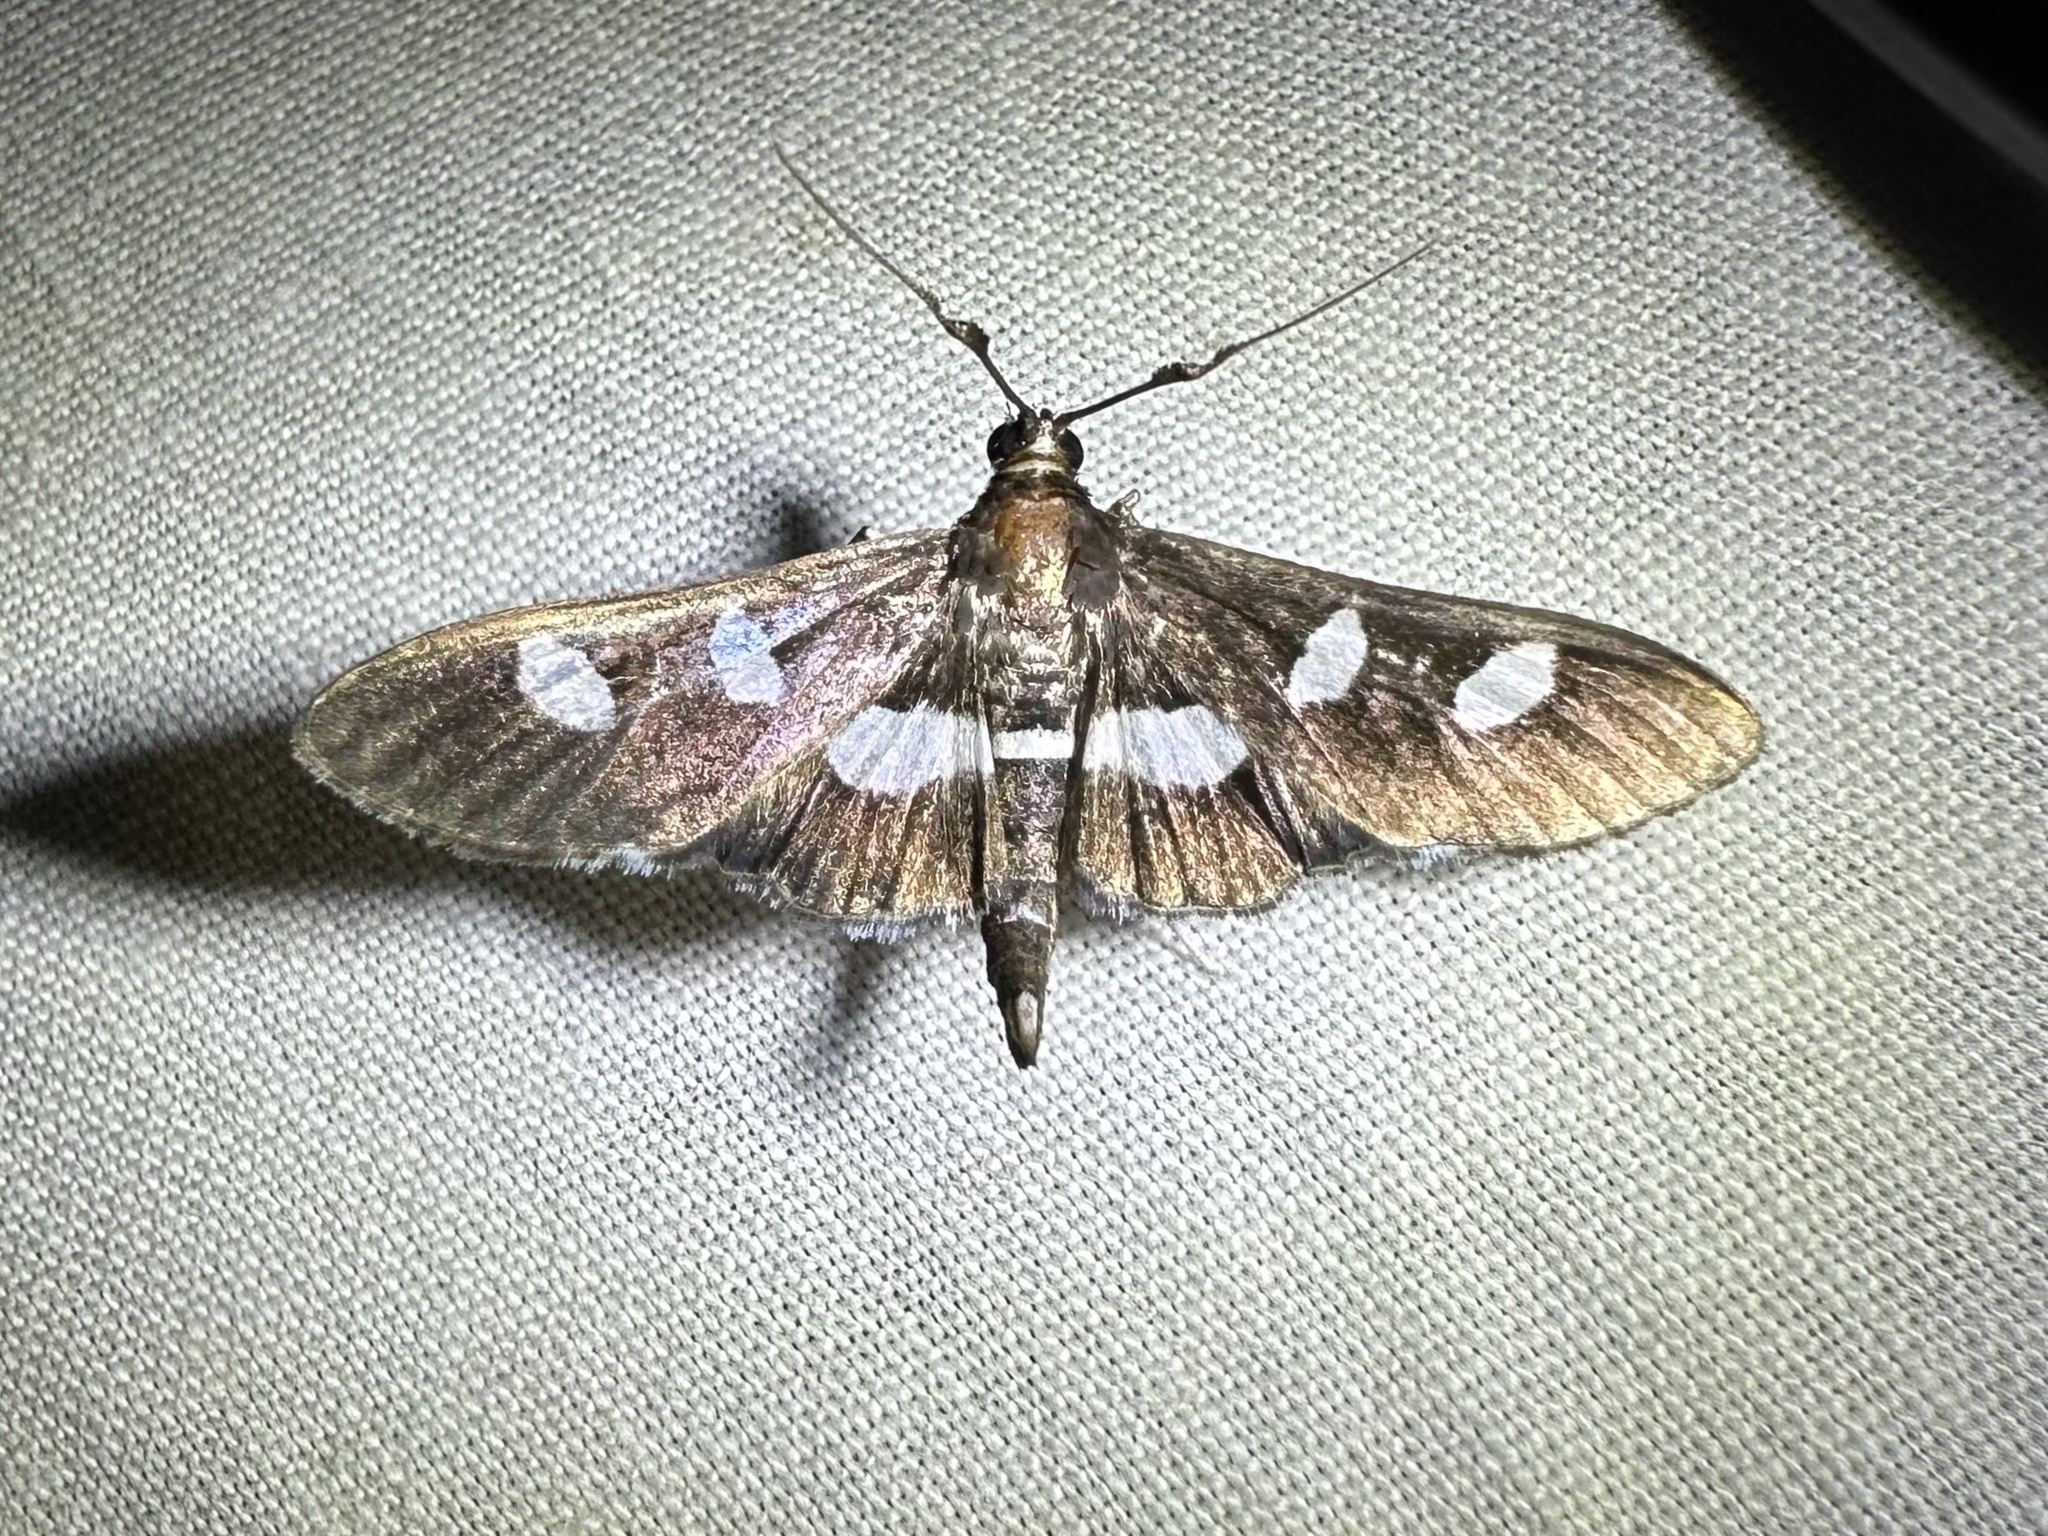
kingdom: Animalia
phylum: Arthropoda
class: Insecta
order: Lepidoptera
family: Crambidae
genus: Desmia
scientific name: Desmia
